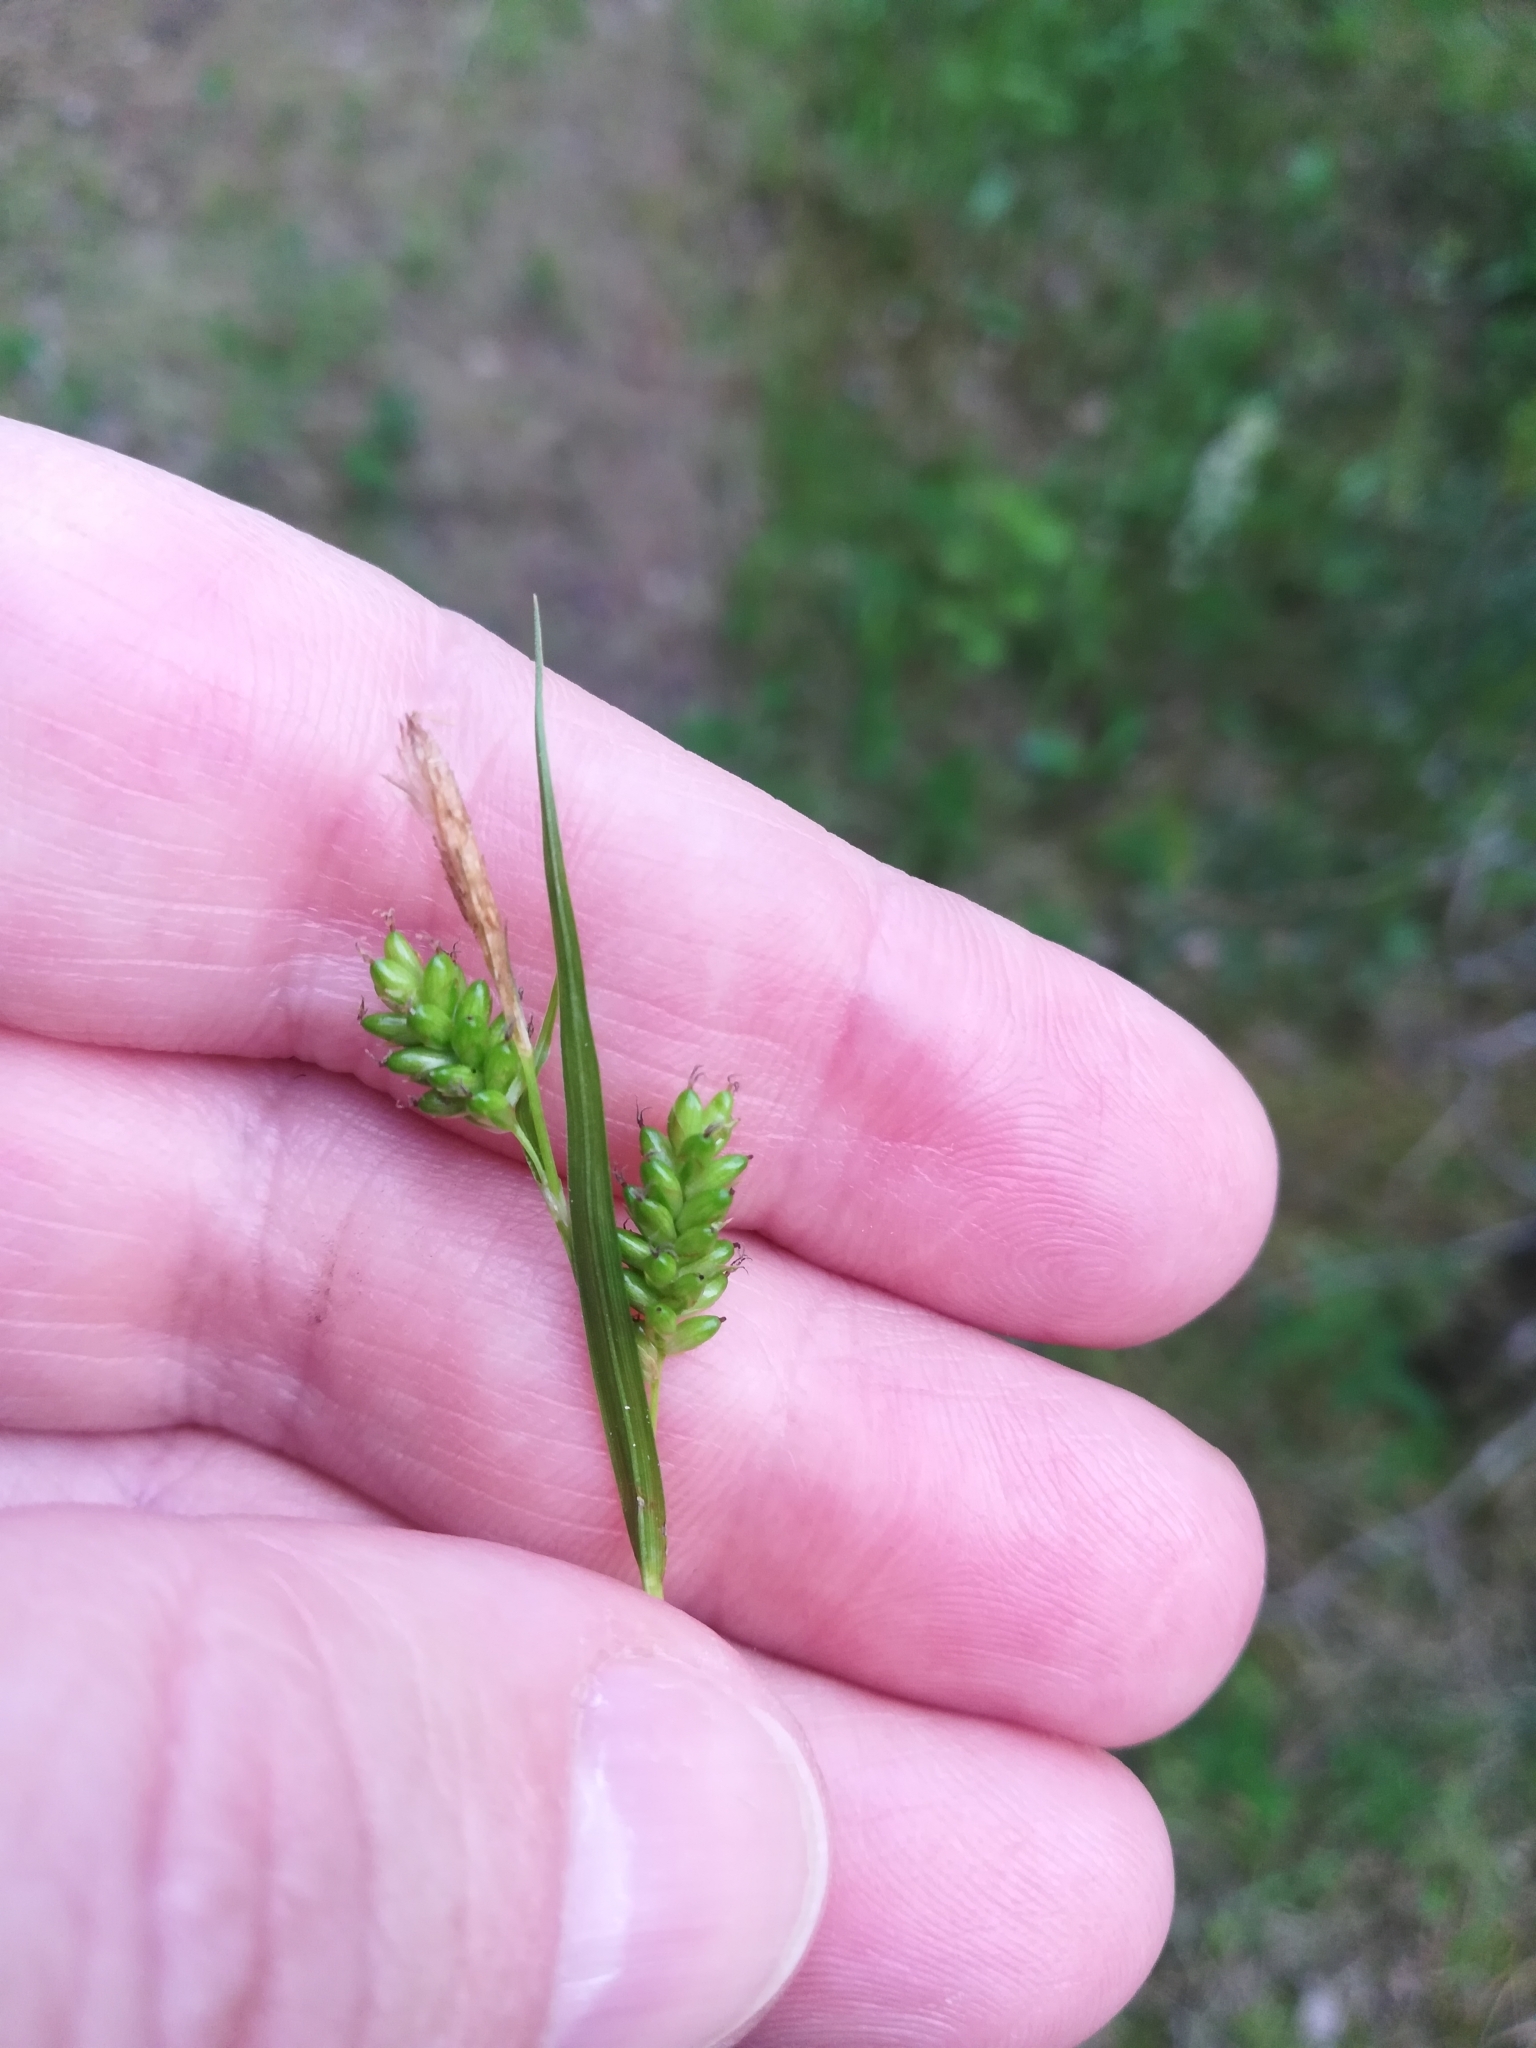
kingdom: Plantae
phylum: Tracheophyta
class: Liliopsida
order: Poales
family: Cyperaceae
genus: Carex
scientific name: Carex pallescens
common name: Pale sedge
